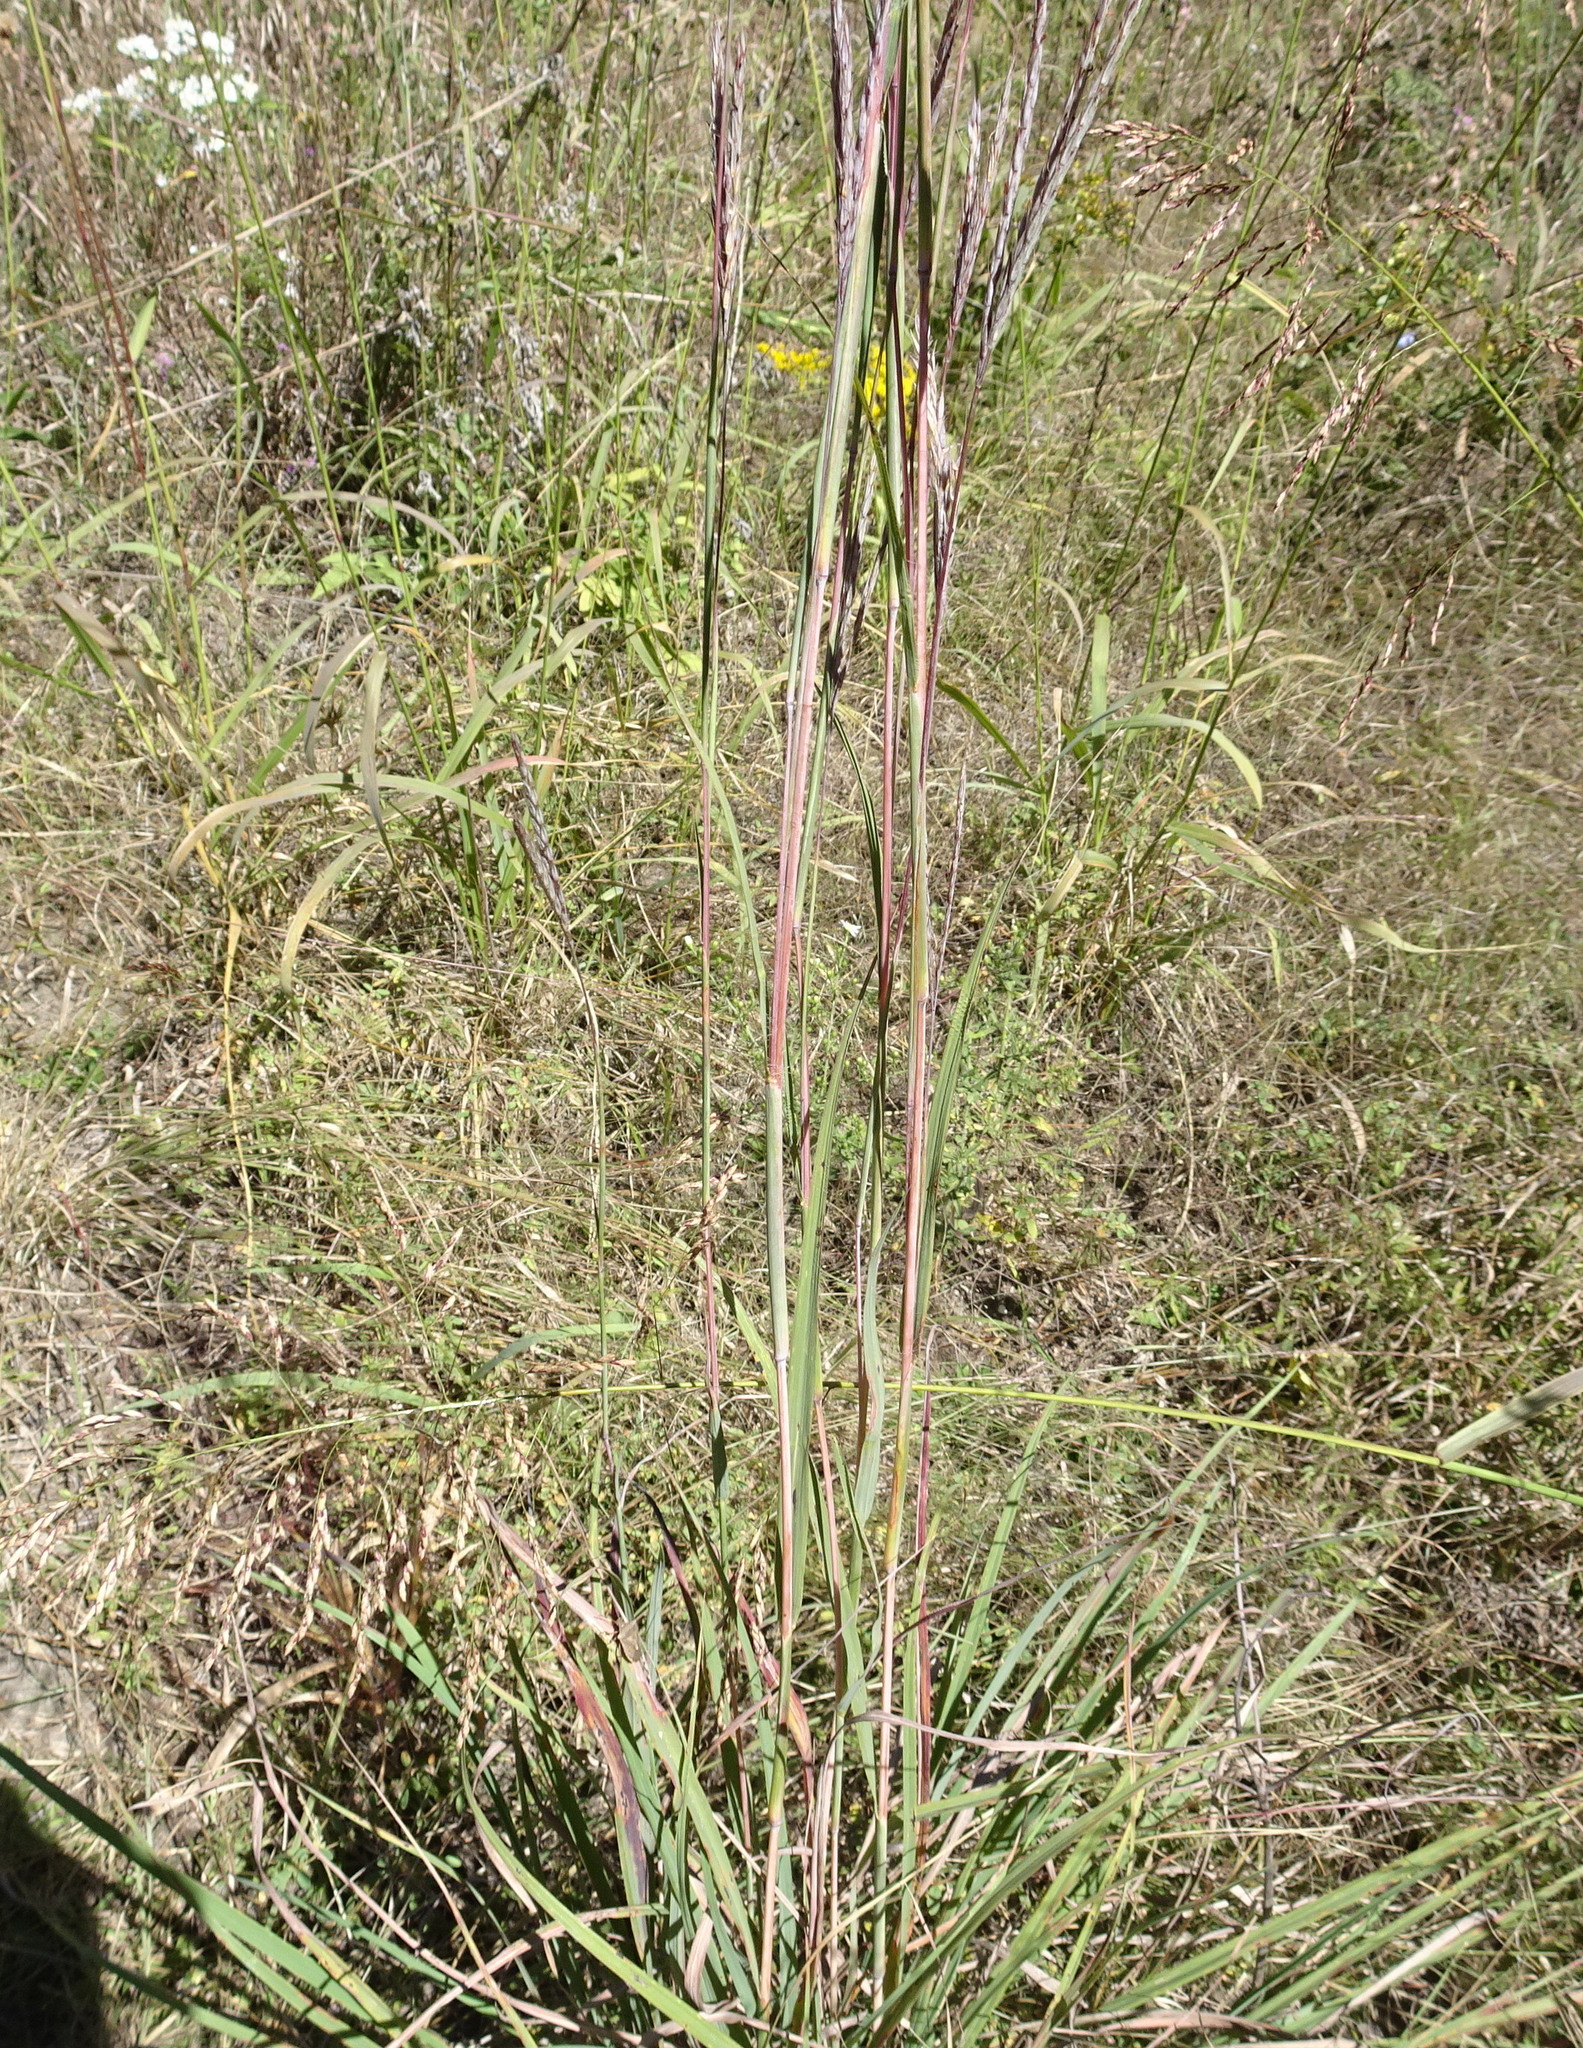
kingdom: Plantae
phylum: Tracheophyta
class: Liliopsida
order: Poales
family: Poaceae
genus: Andropogon
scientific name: Andropogon gerardi
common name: Big bluestem
